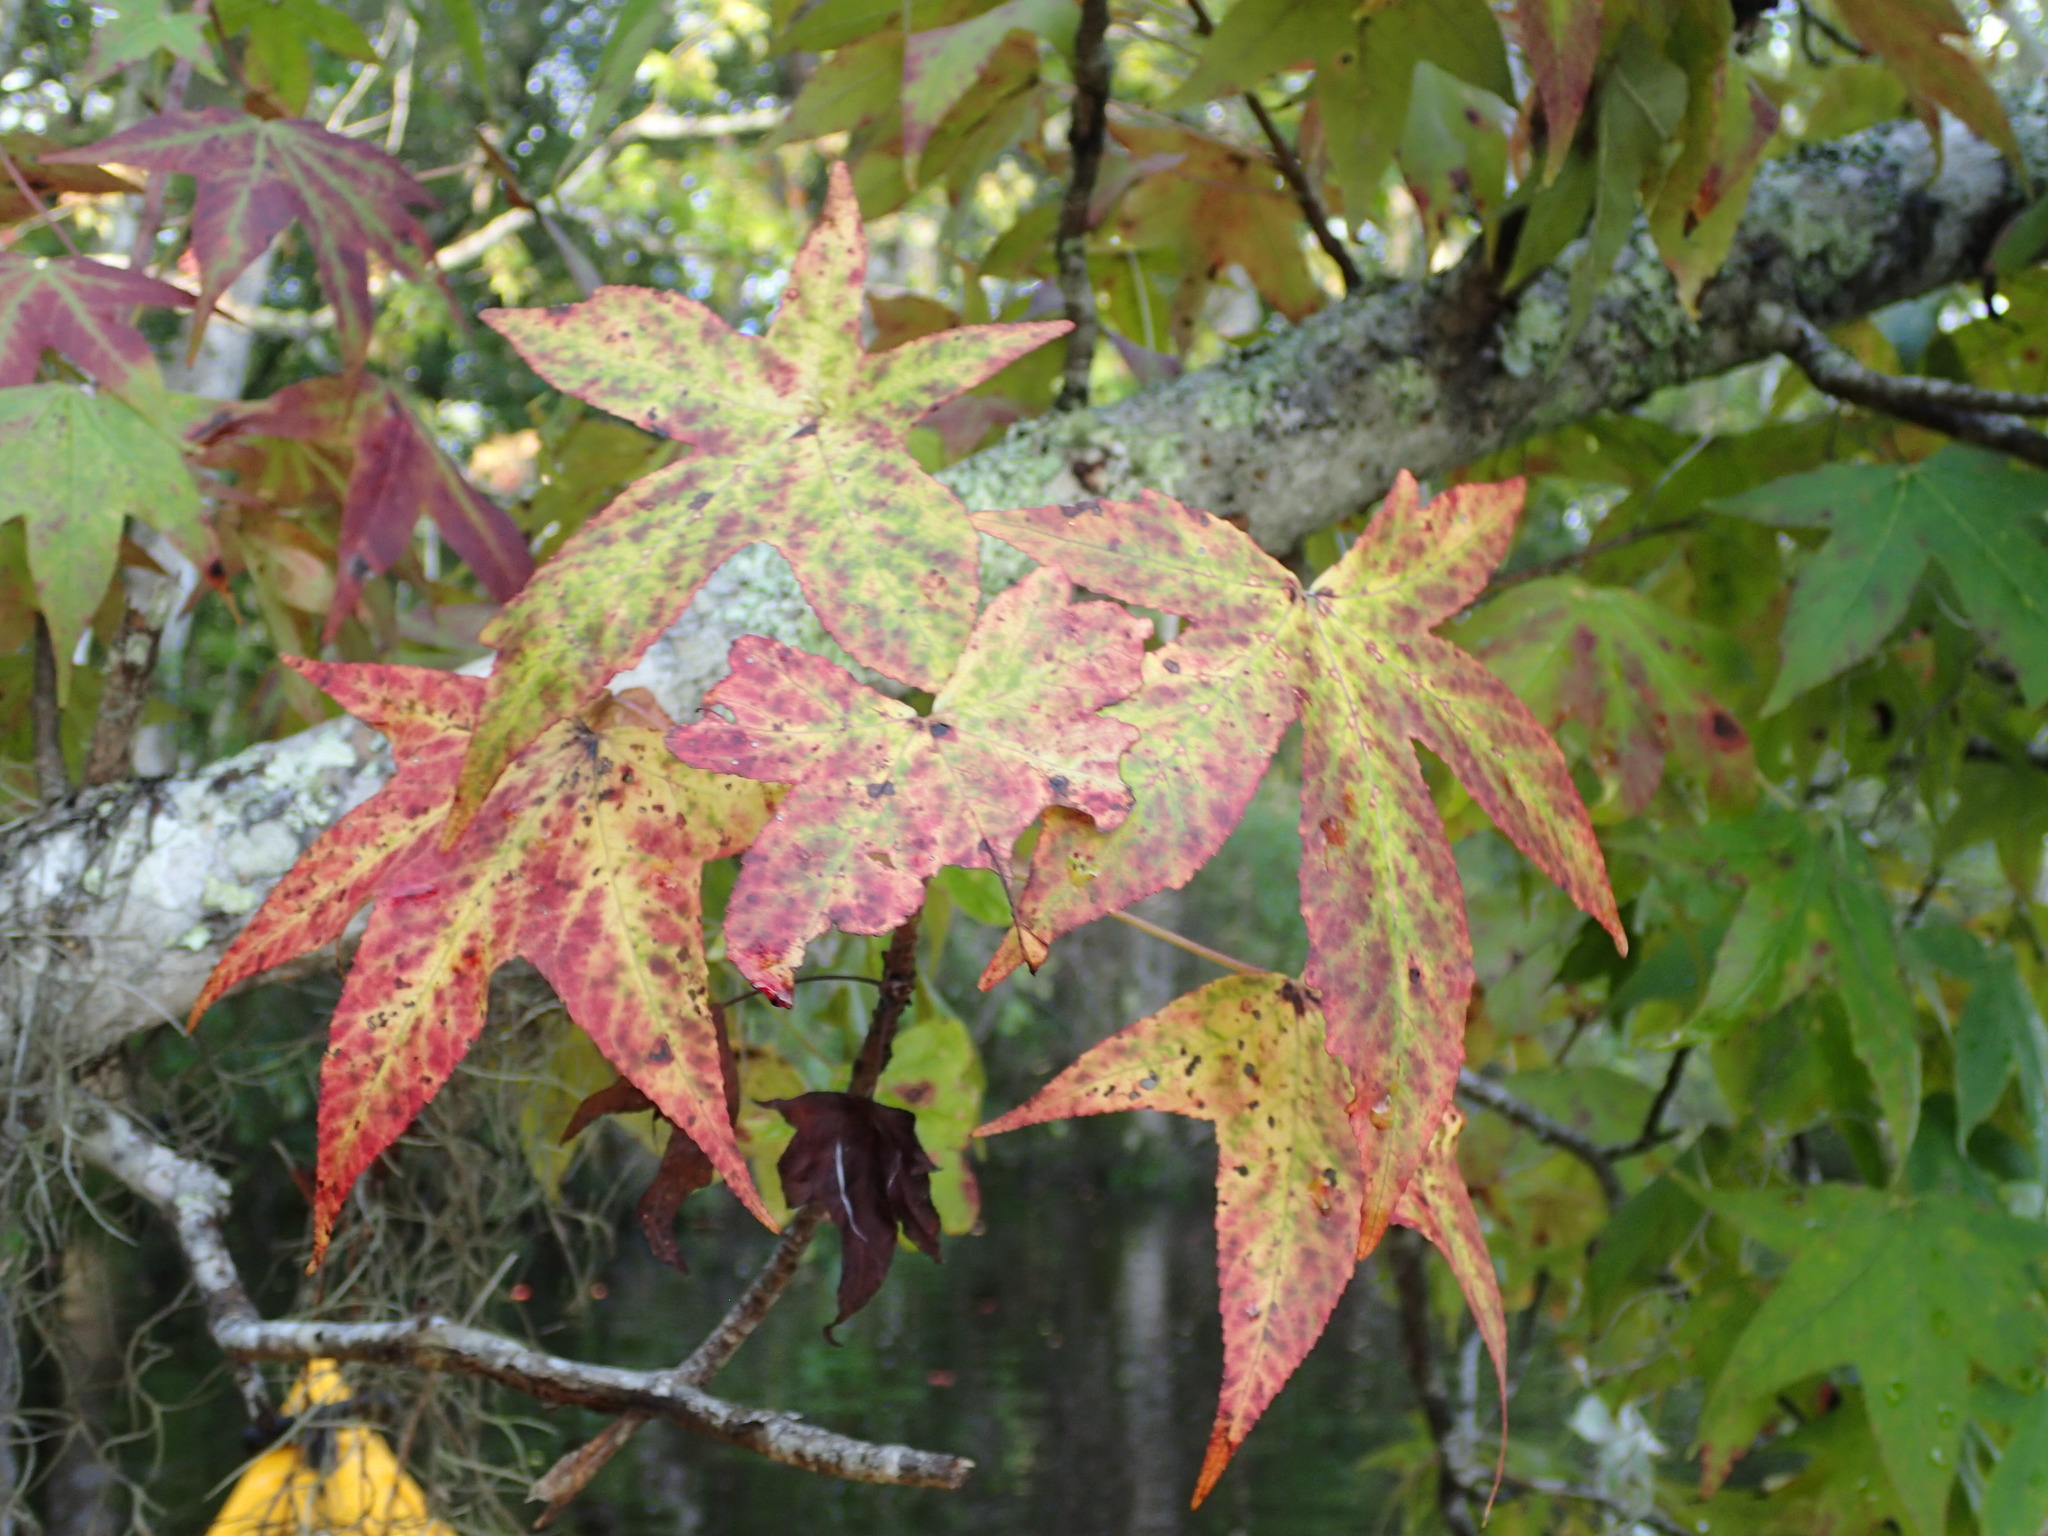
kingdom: Plantae
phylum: Tracheophyta
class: Magnoliopsida
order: Saxifragales
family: Altingiaceae
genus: Liquidambar
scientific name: Liquidambar styraciflua
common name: Sweet gum
